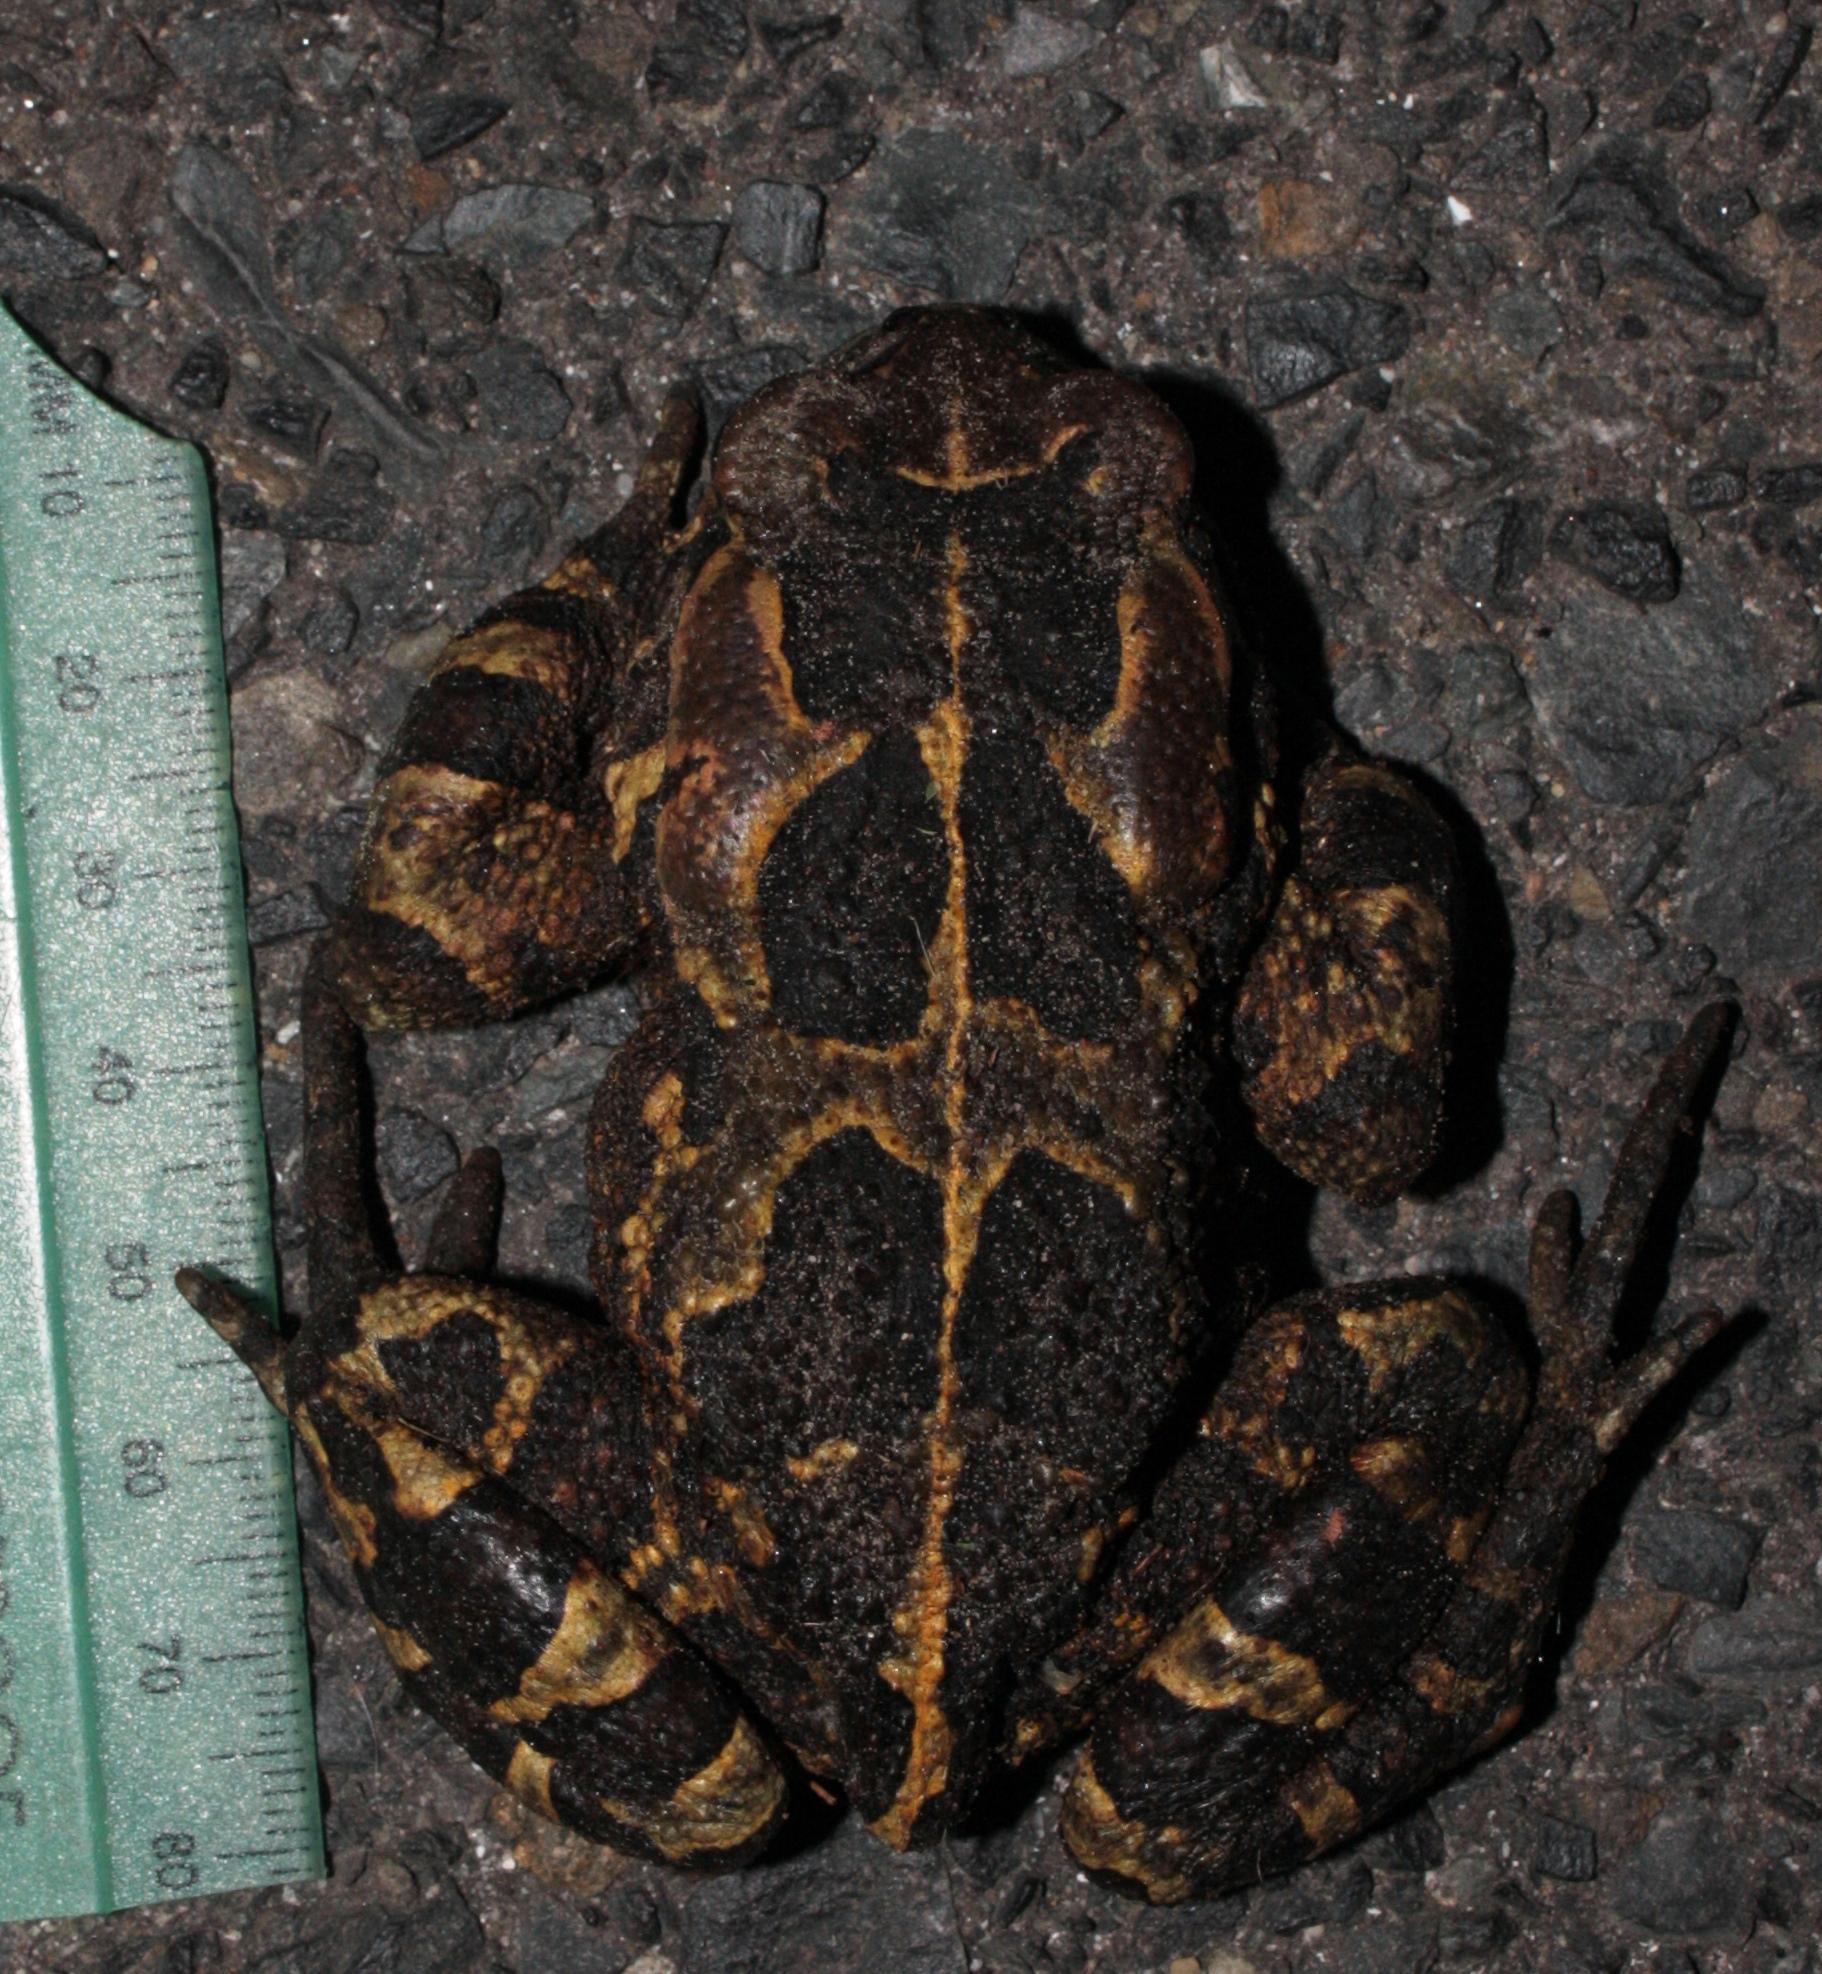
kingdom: Animalia
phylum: Chordata
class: Amphibia
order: Anura
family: Bufonidae
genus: Sclerophrys
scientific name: Sclerophrys pantherina
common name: Panther toad
